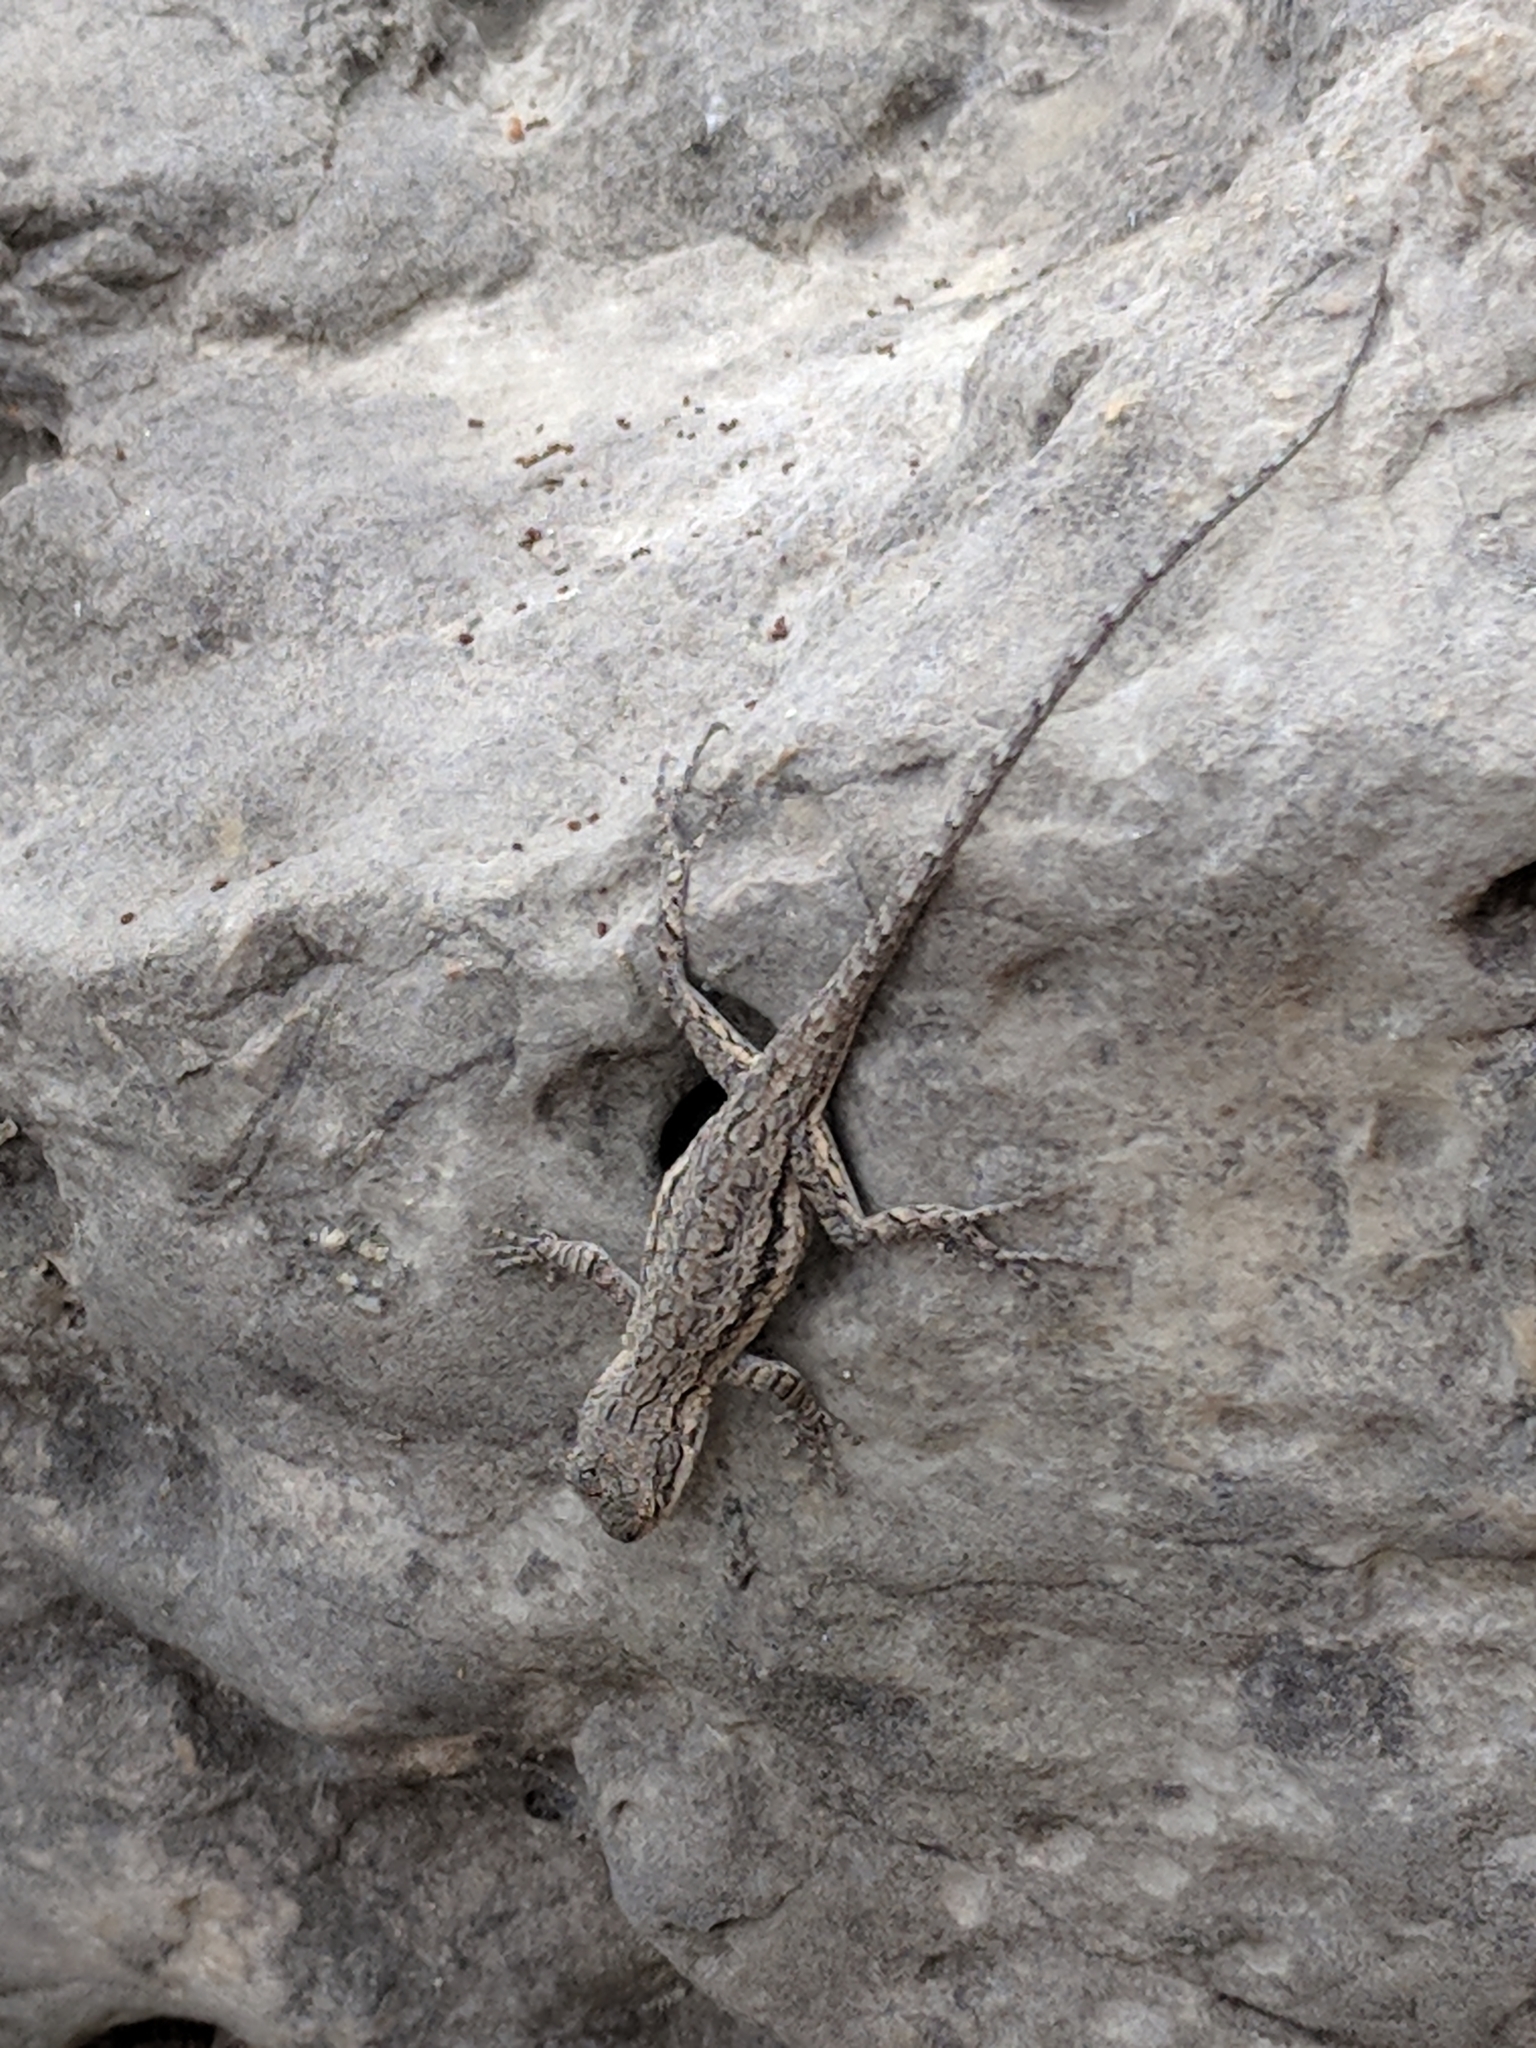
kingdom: Animalia
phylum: Chordata
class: Squamata
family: Phrynosomatidae
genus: Urosaurus
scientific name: Urosaurus ornatus
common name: Ornate tree lizard
